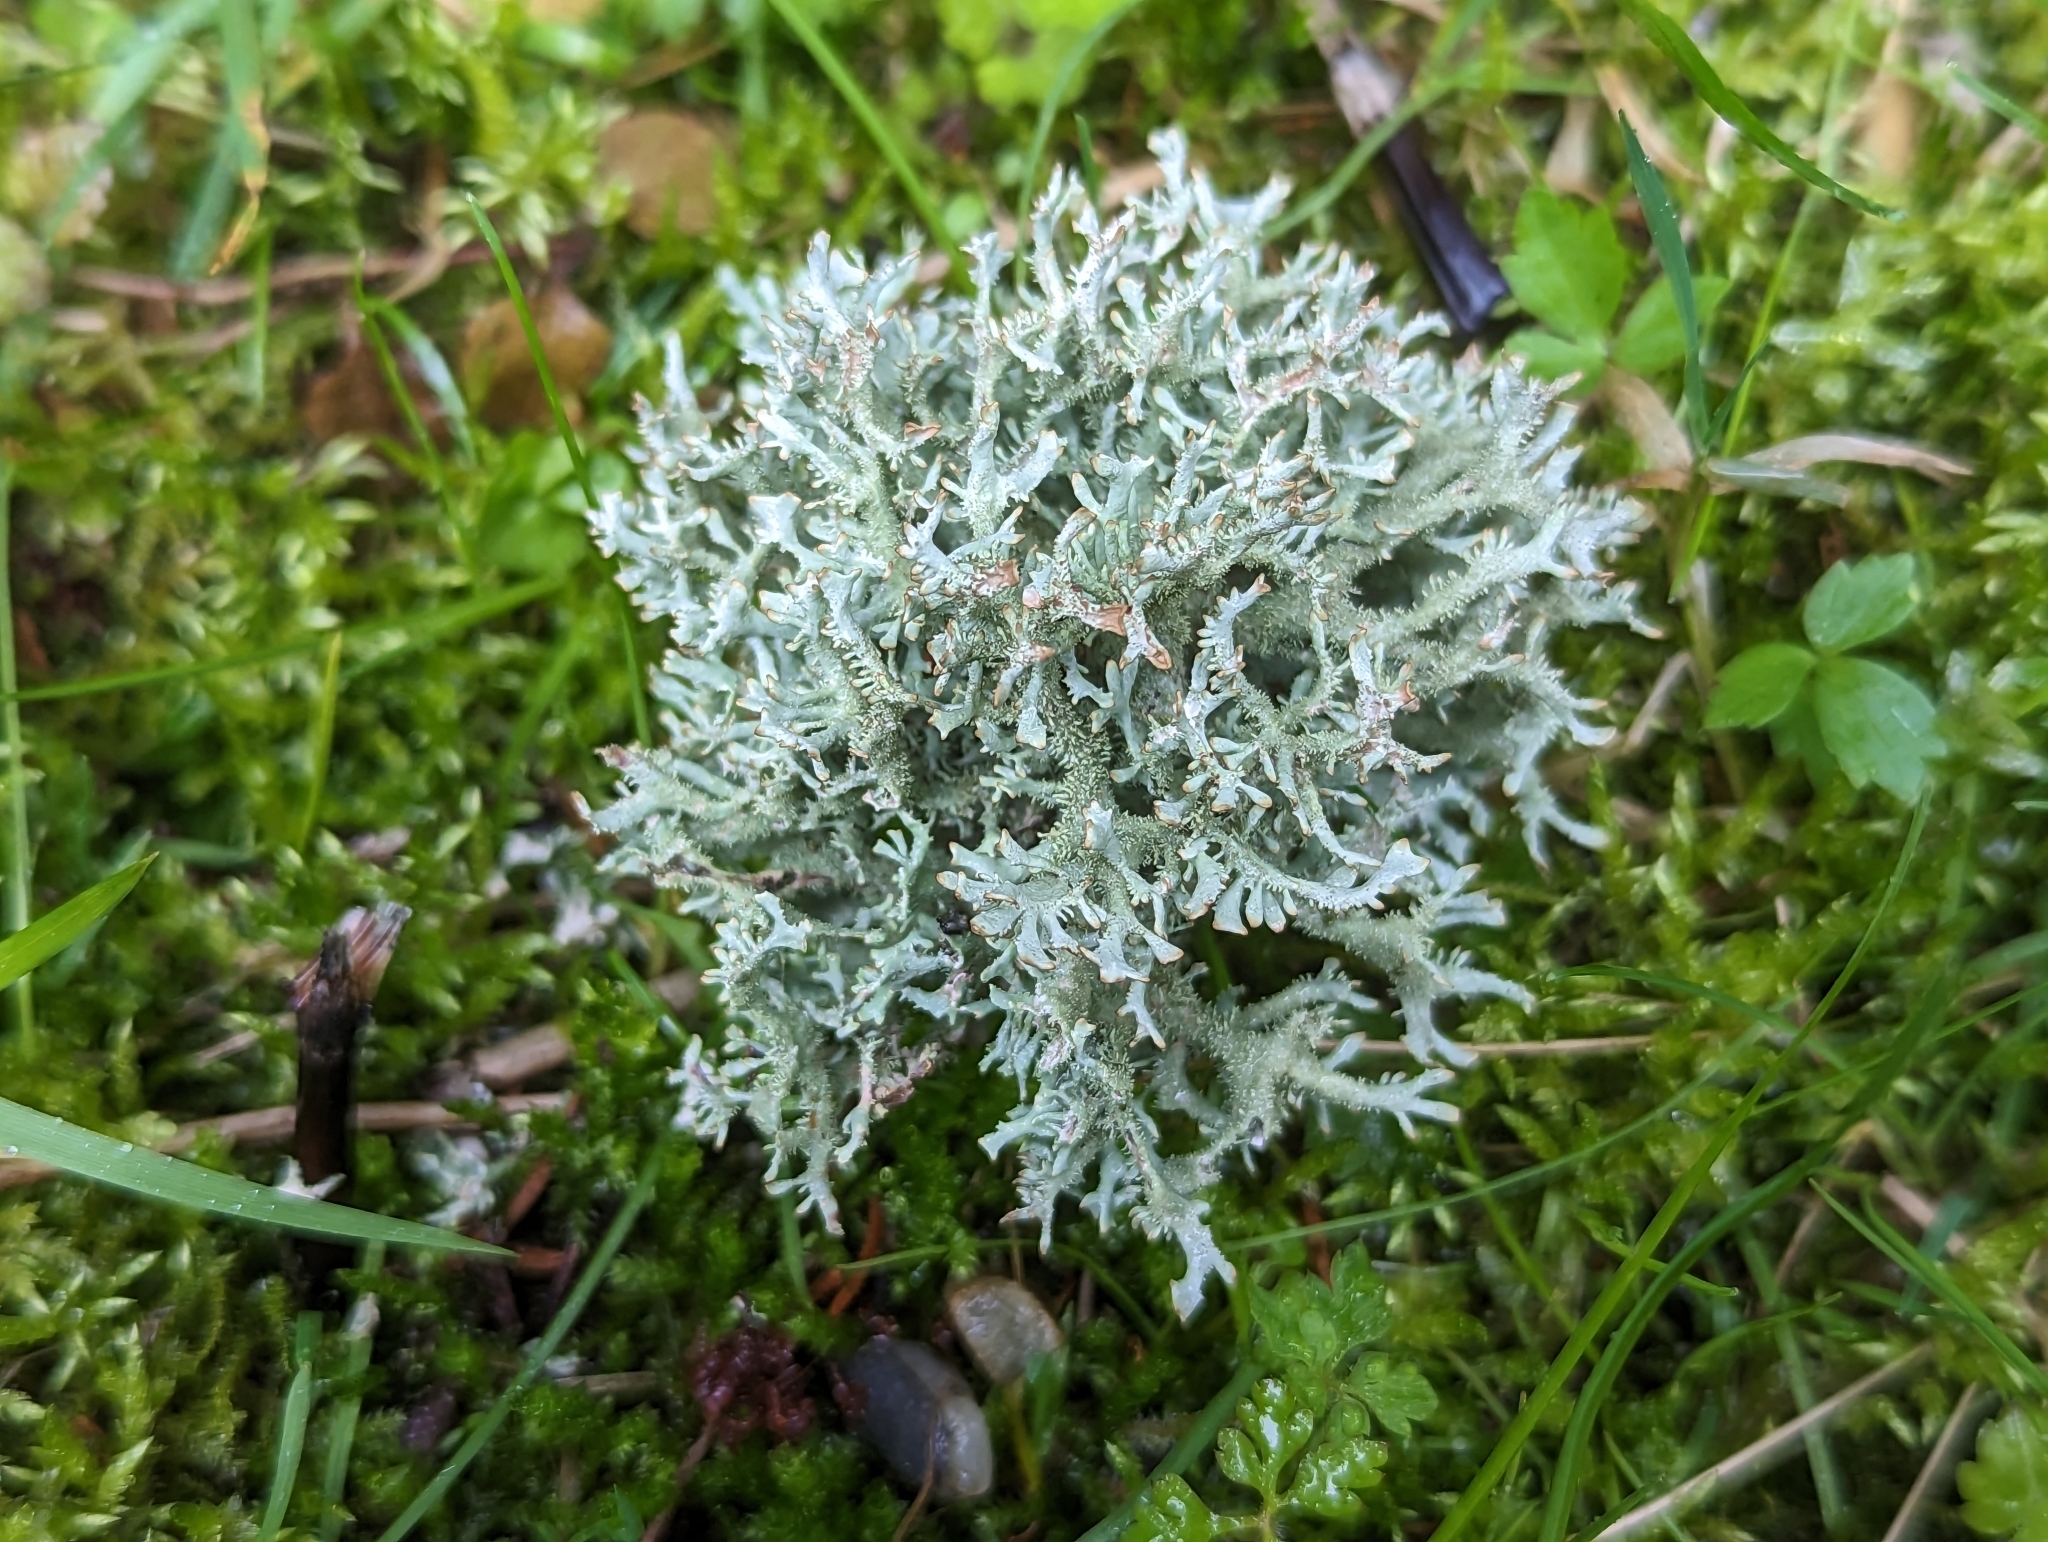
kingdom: Fungi
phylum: Ascomycota
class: Lecanoromycetes
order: Lecanorales
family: Parmeliaceae
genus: Pseudevernia
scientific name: Pseudevernia furfuracea
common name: Tree moss
